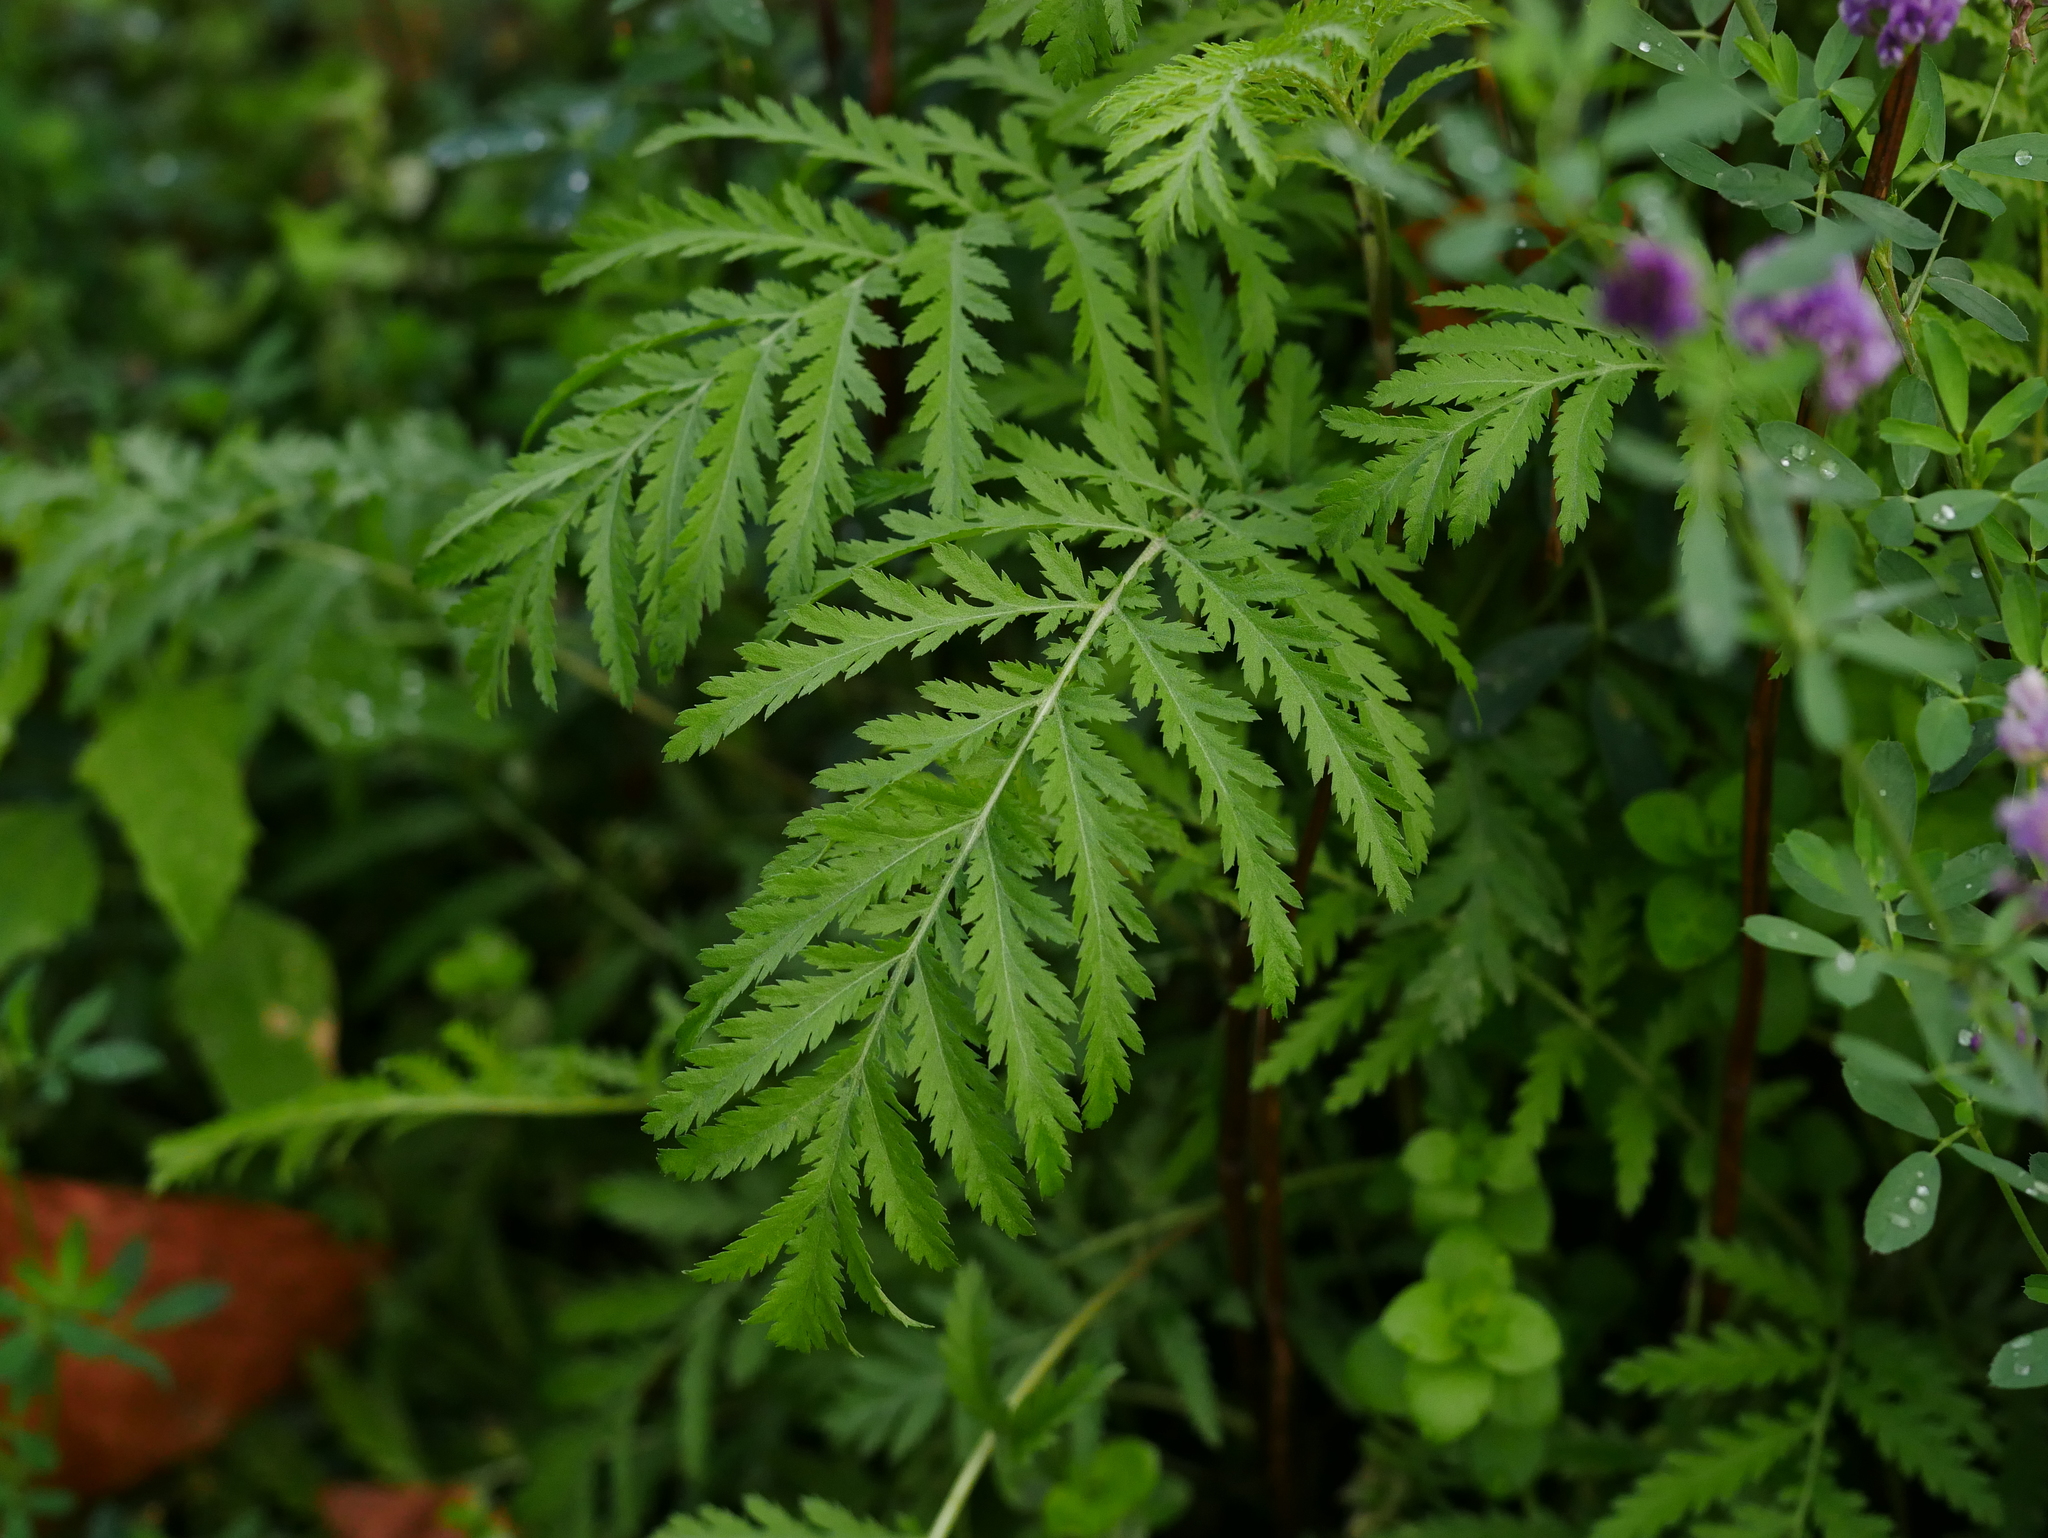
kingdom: Plantae
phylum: Tracheophyta
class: Magnoliopsida
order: Asterales
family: Asteraceae
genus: Tanacetum
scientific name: Tanacetum vulgare
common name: Common tansy
